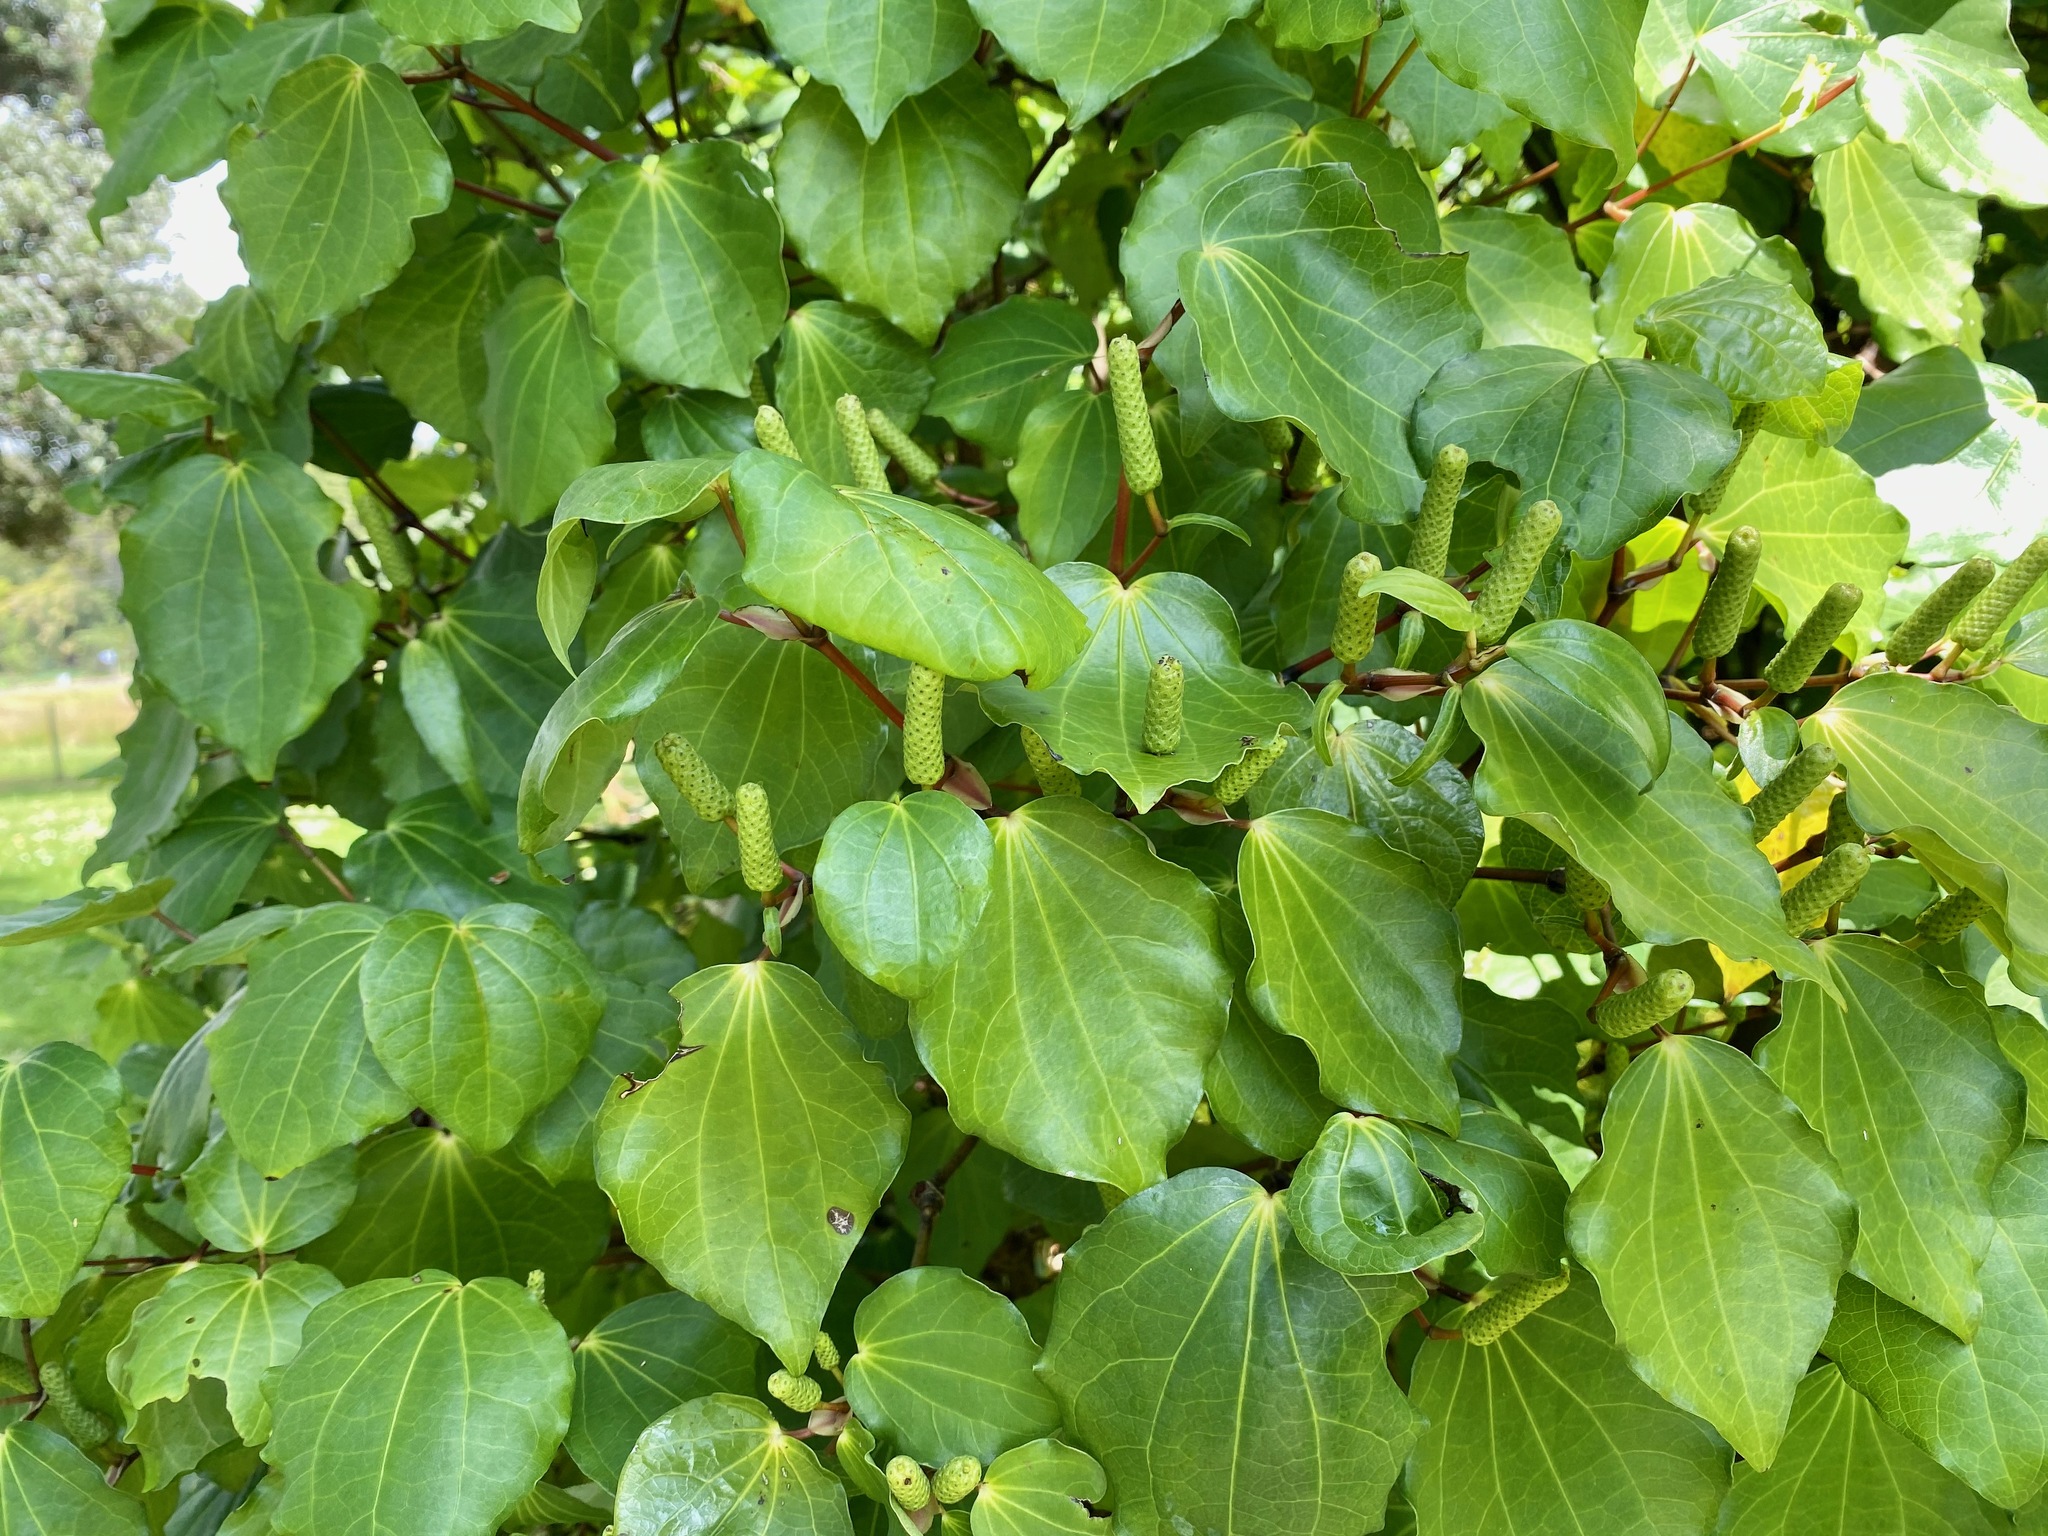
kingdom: Plantae
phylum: Tracheophyta
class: Magnoliopsida
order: Piperales
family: Piperaceae
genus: Macropiper
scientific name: Macropiper excelsum
